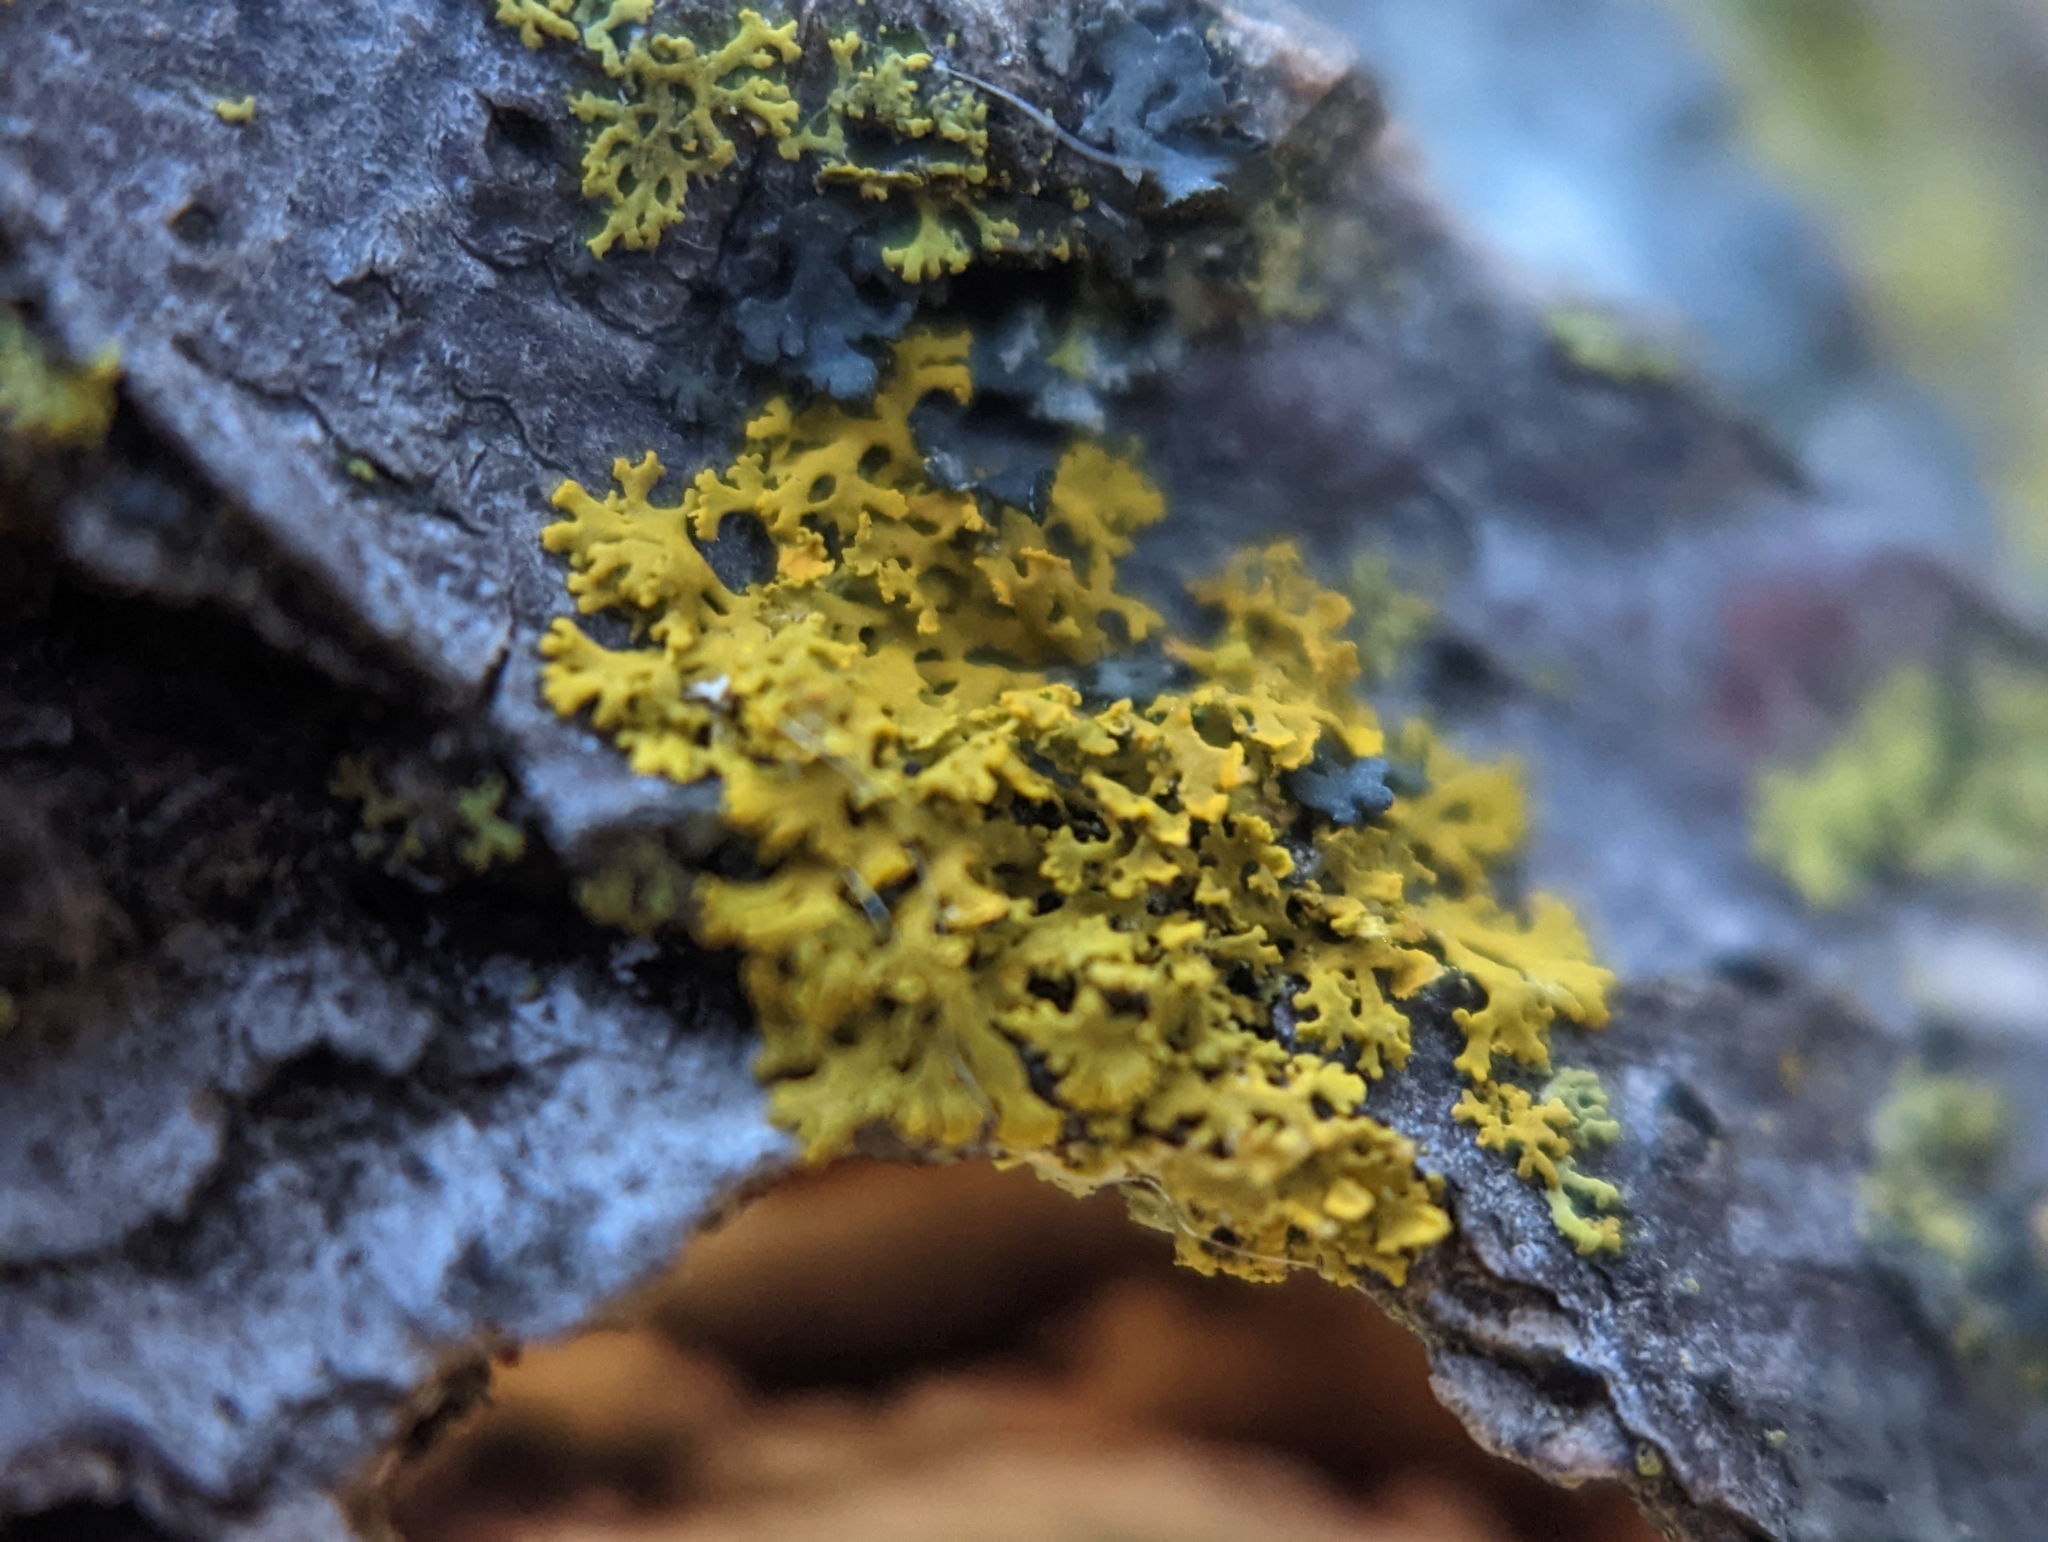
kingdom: Fungi
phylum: Ascomycota
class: Candelariomycetes
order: Candelariales
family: Candelariaceae
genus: Candelaria
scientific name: Candelaria concolor
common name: Candleflame lichen
